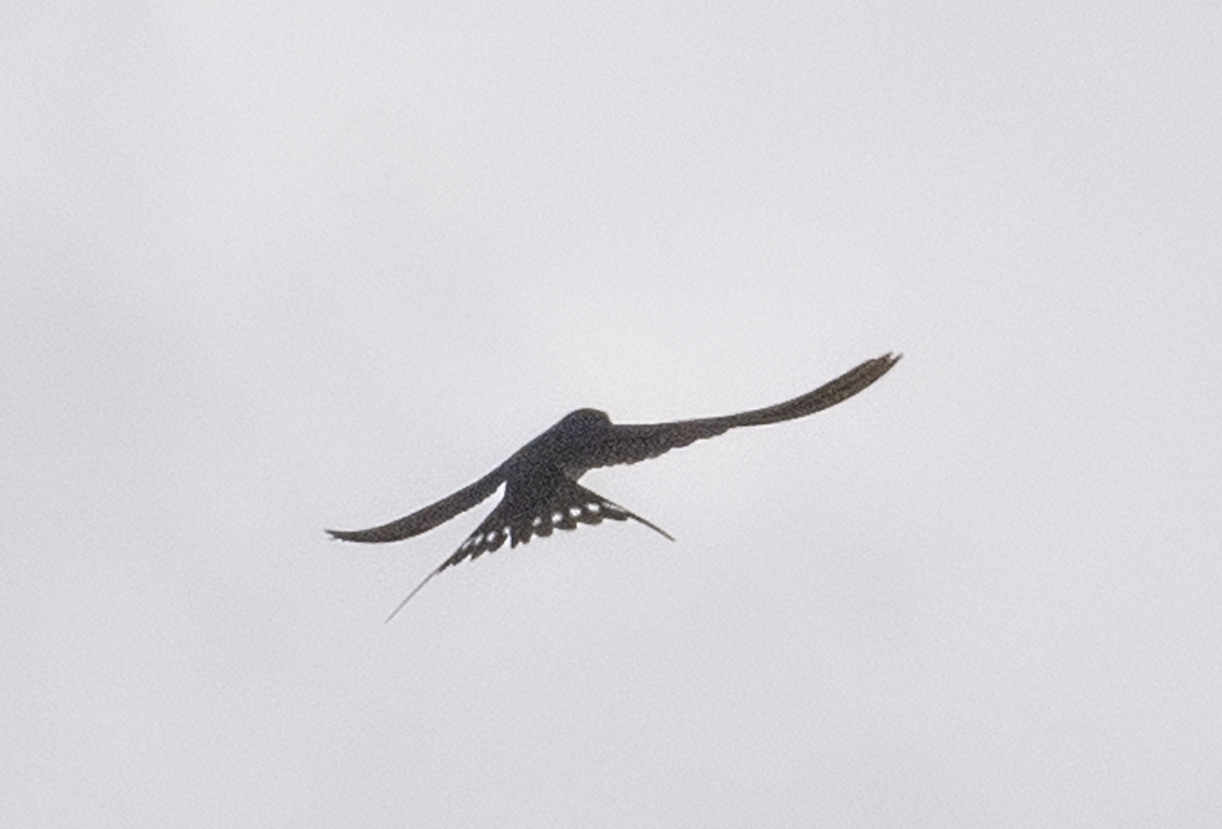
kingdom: Animalia
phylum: Chordata
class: Aves
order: Passeriformes
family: Hirundinidae
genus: Hirundo
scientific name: Hirundo rustica
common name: Barn swallow
